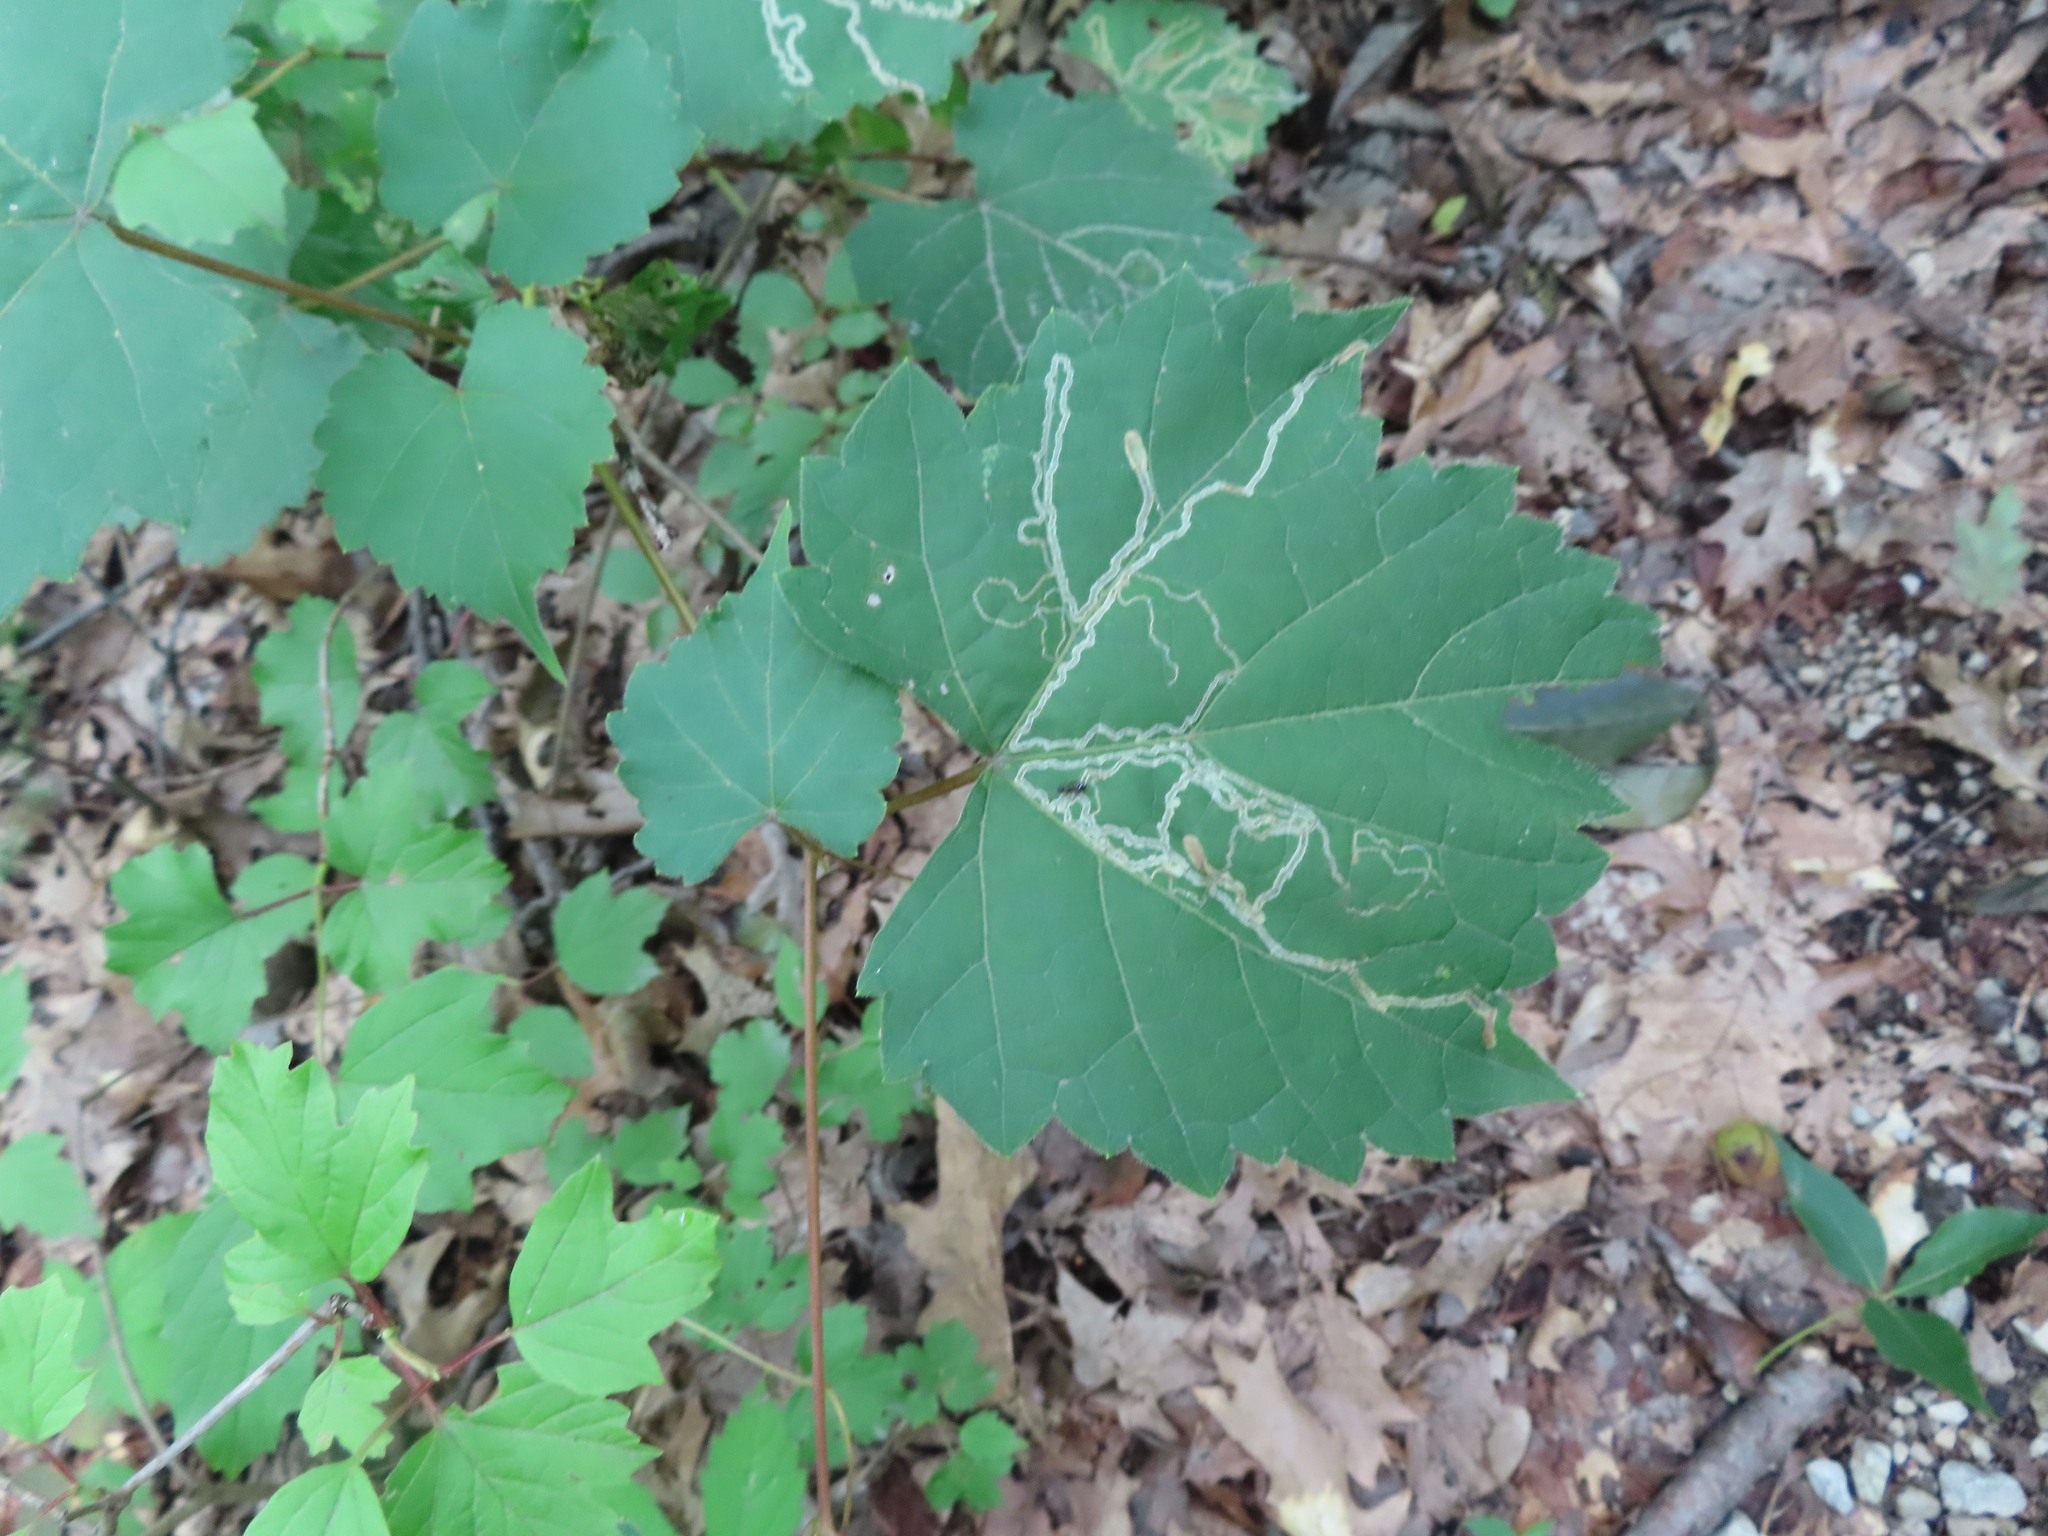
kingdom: Animalia
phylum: Arthropoda
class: Insecta
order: Lepidoptera
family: Gracillariidae
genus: Phyllocnistis
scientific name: Phyllocnistis vitifoliella
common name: Grape leaf-miner moth
